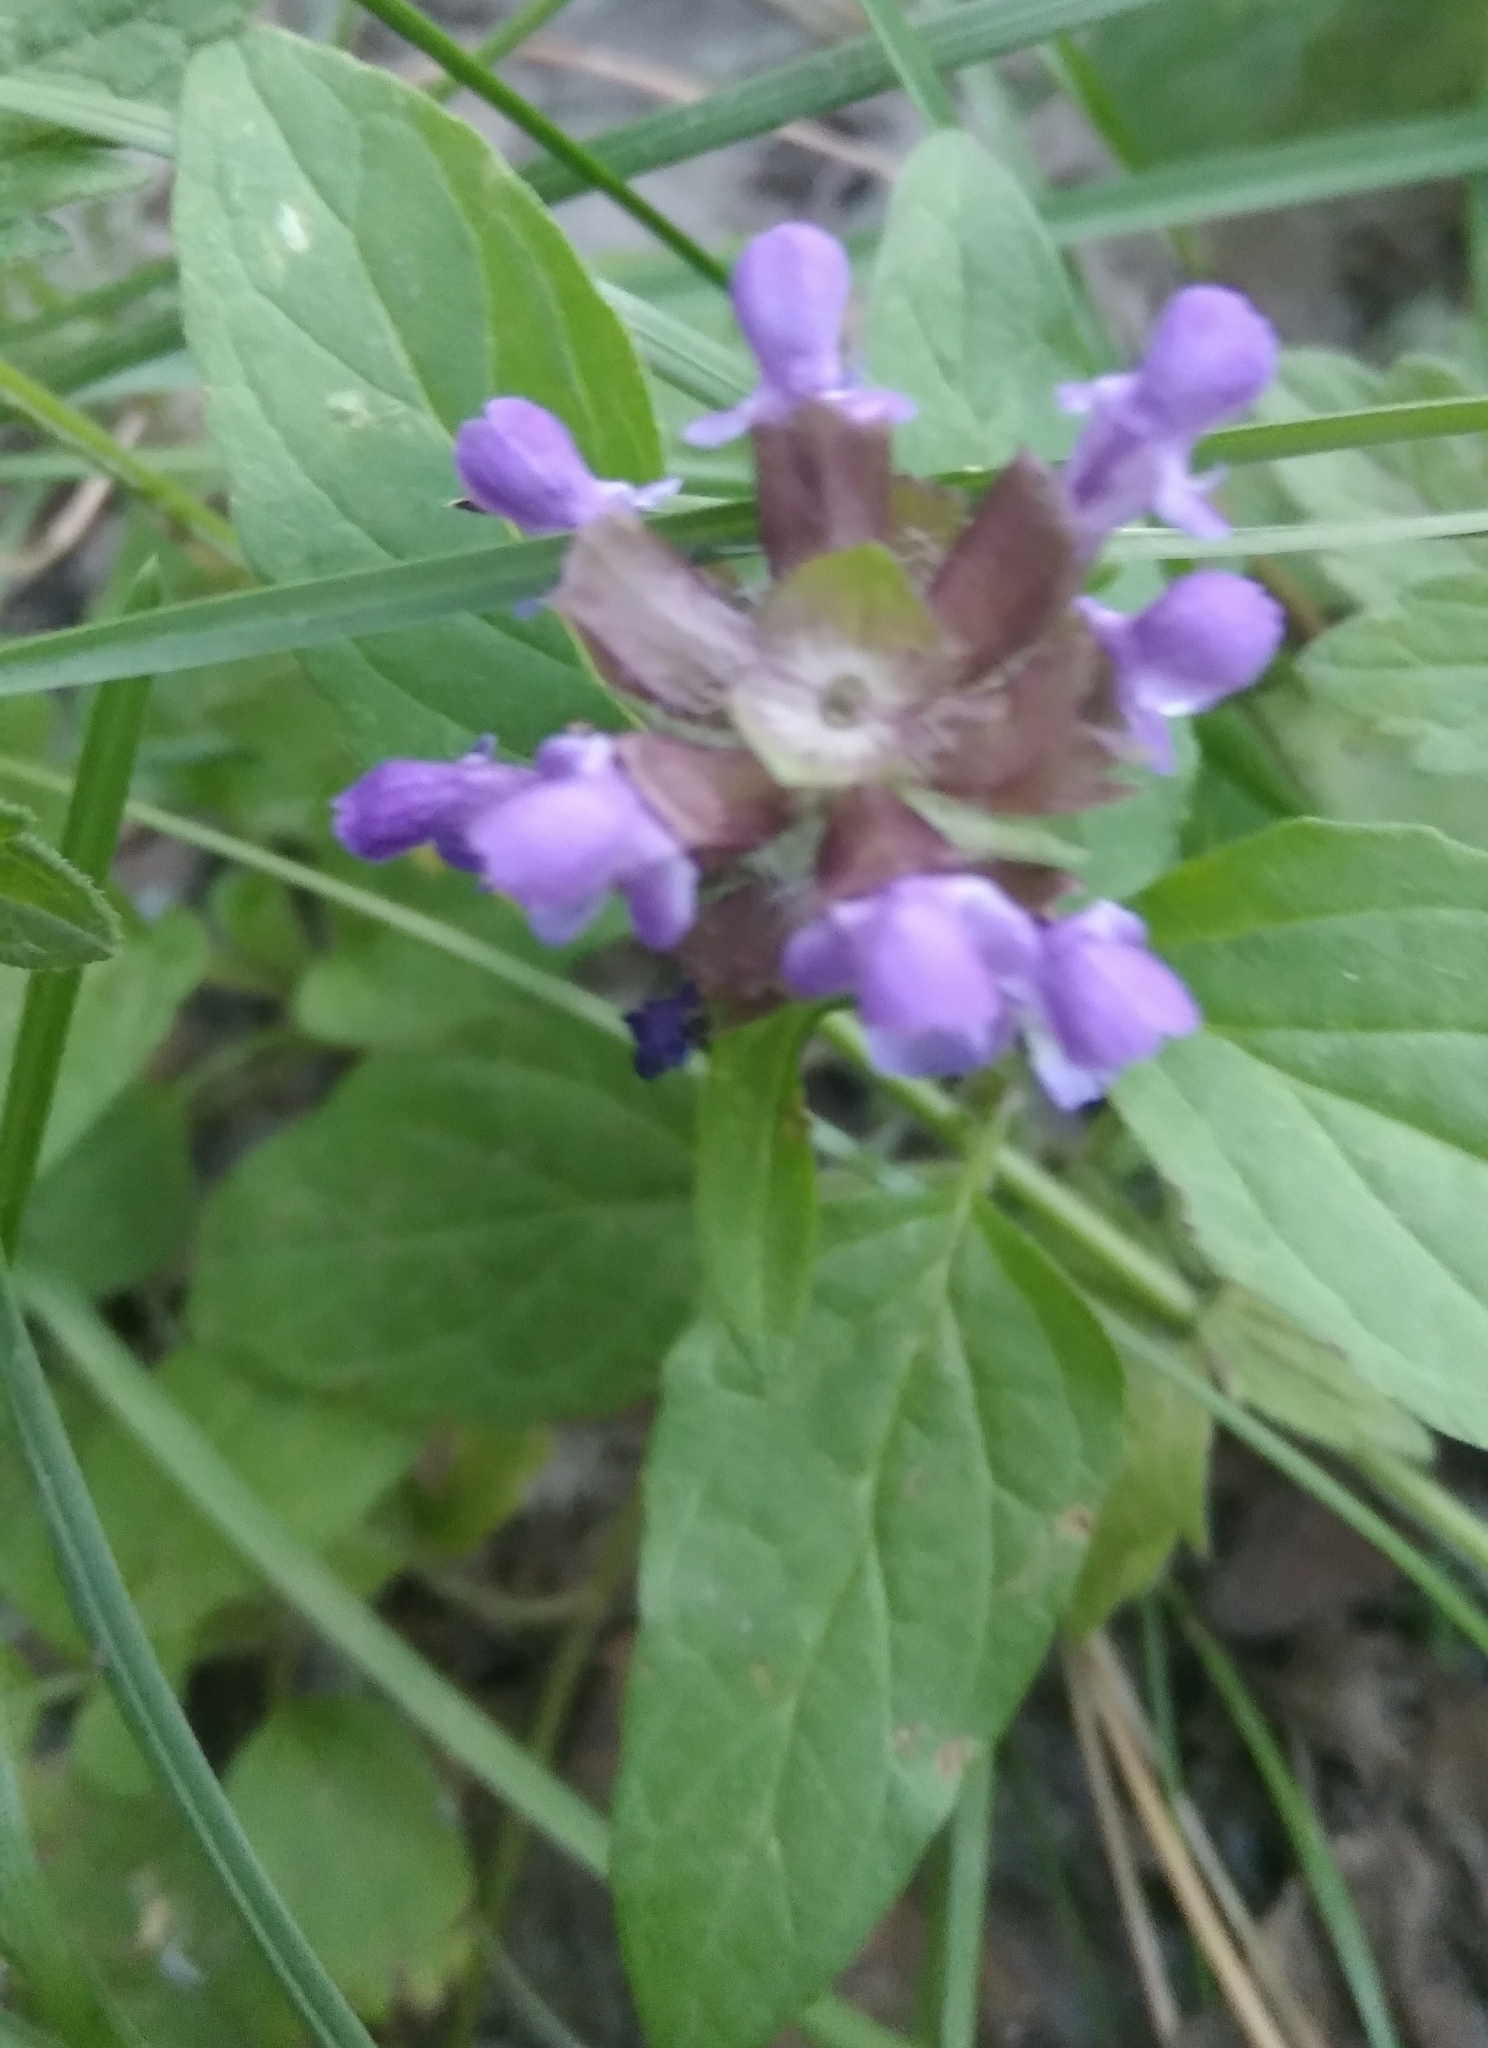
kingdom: Plantae
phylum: Tracheophyta
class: Magnoliopsida
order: Lamiales
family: Lamiaceae
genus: Prunella
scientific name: Prunella vulgaris
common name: Heal-all
